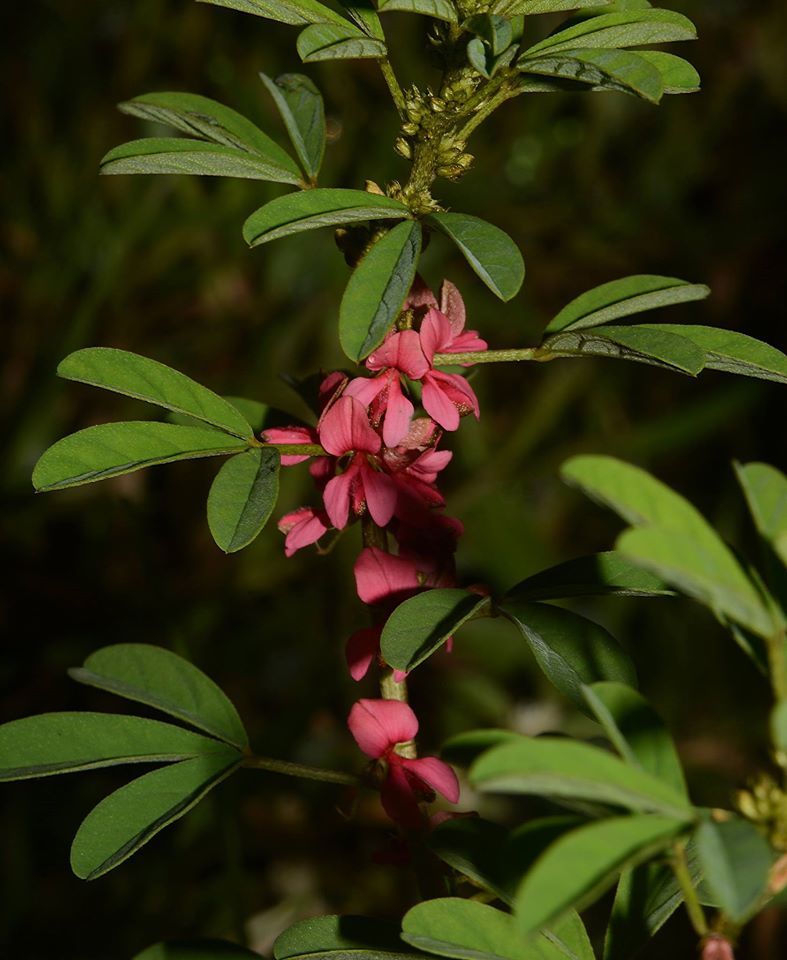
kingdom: Plantae
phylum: Tracheophyta
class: Magnoliopsida
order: Fabales
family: Fabaceae
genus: Indigofera
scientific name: Indigofera glandulosa
